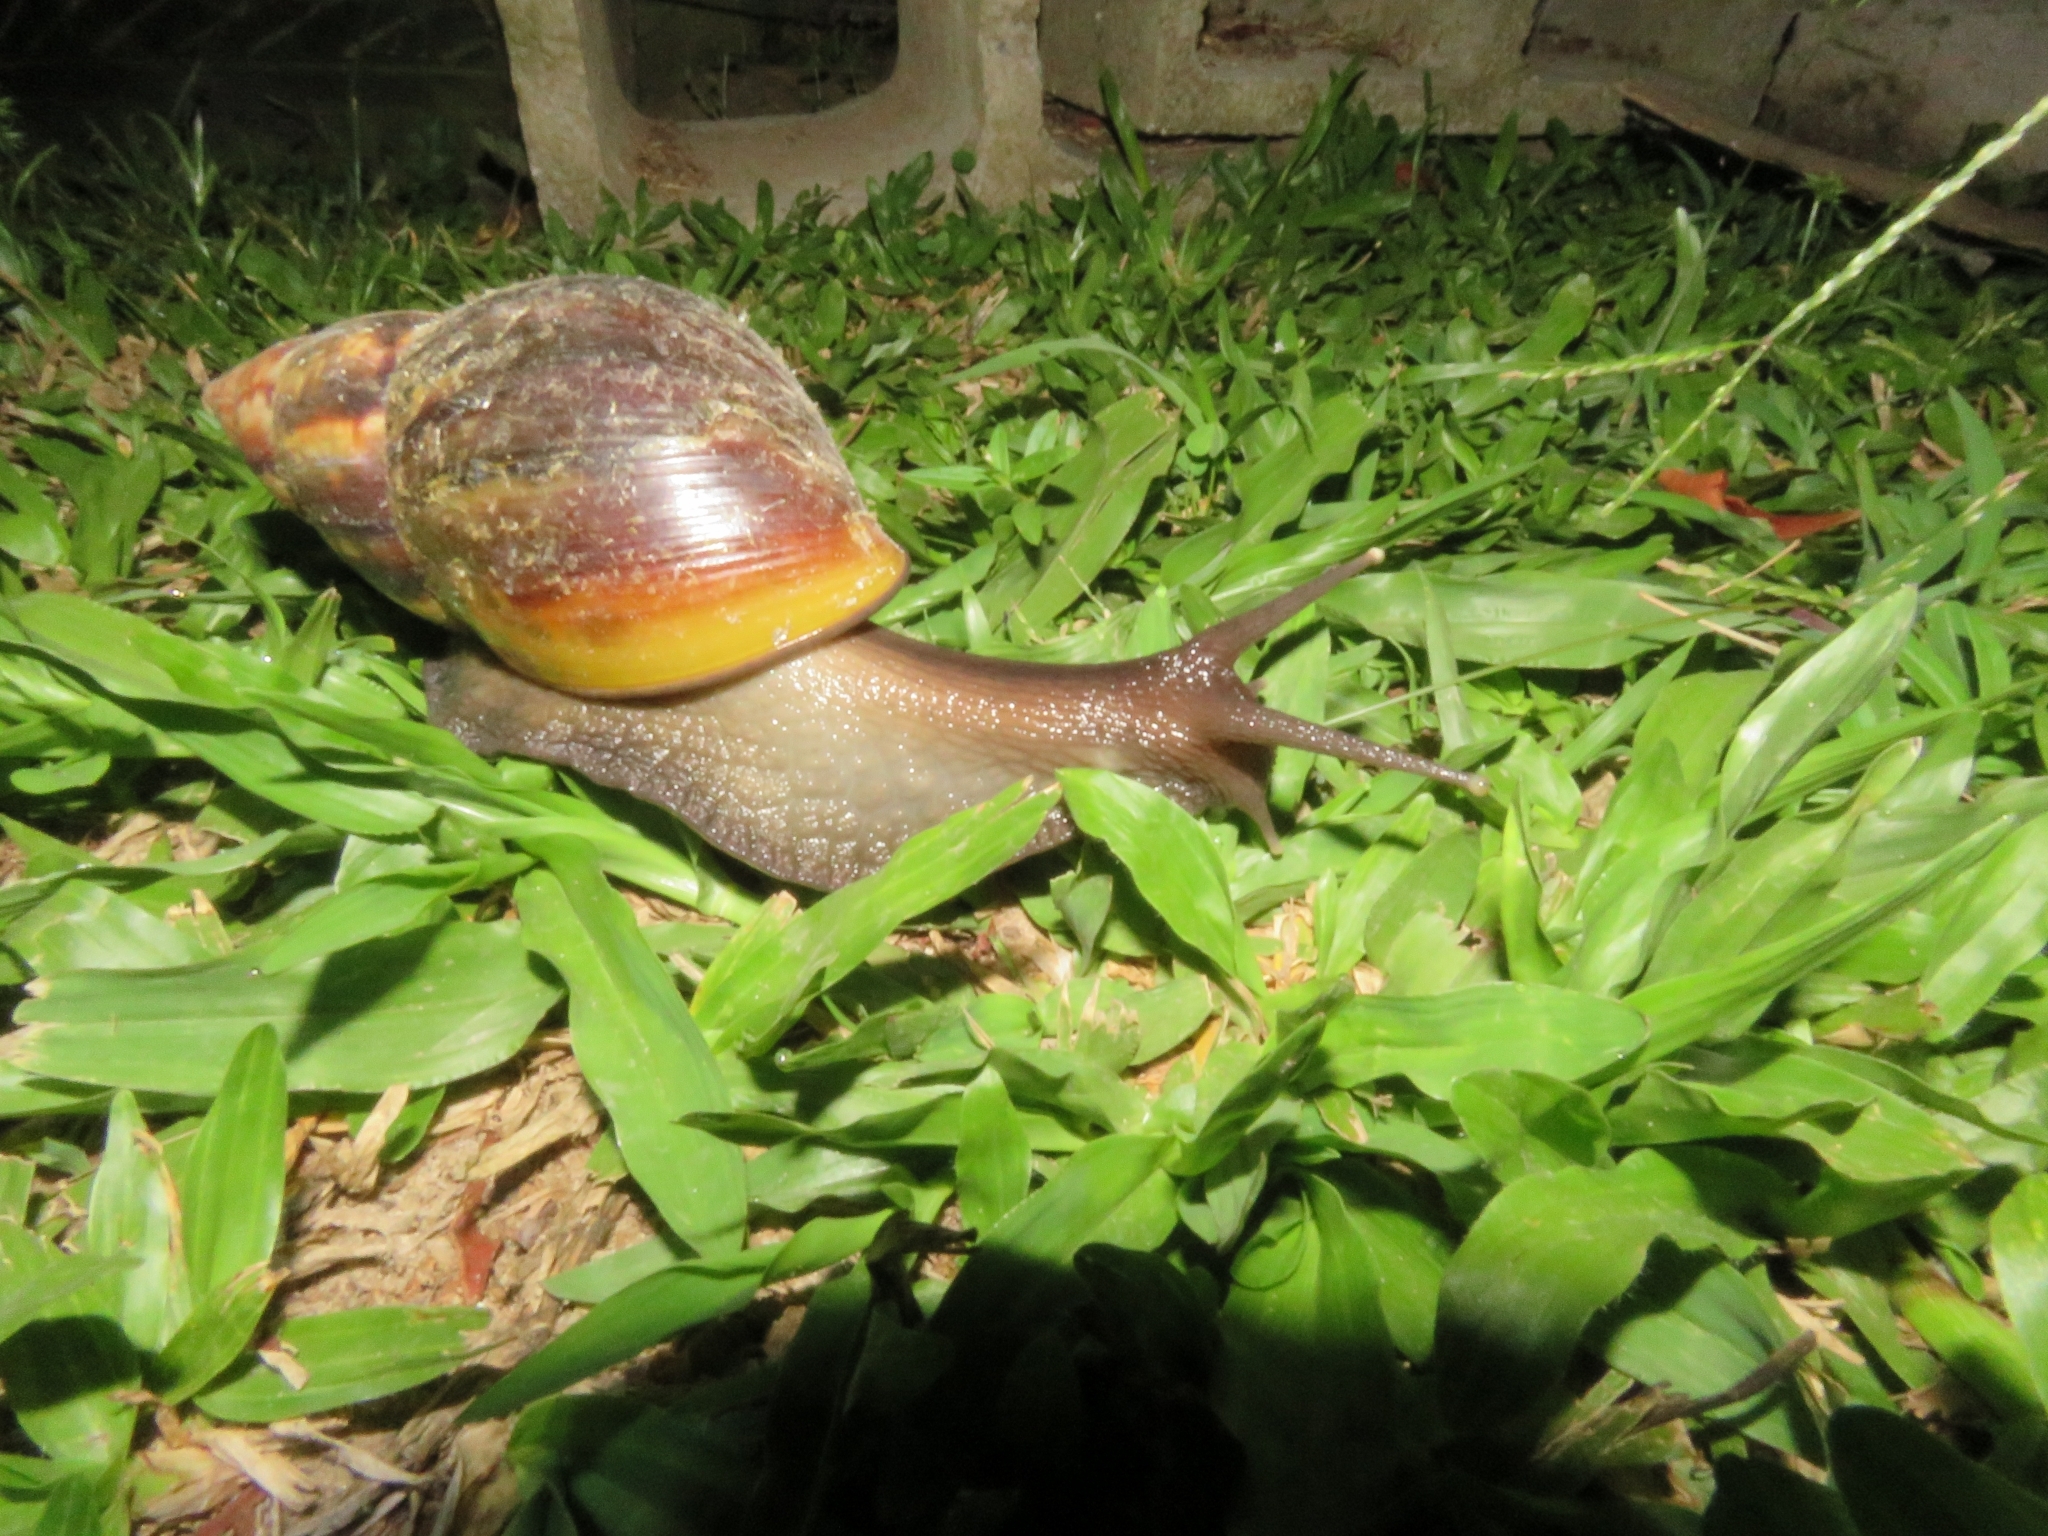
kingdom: Animalia
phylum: Mollusca
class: Gastropoda
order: Stylommatophora
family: Achatinidae
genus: Lissachatina
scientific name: Lissachatina fulica
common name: Giant african snail
